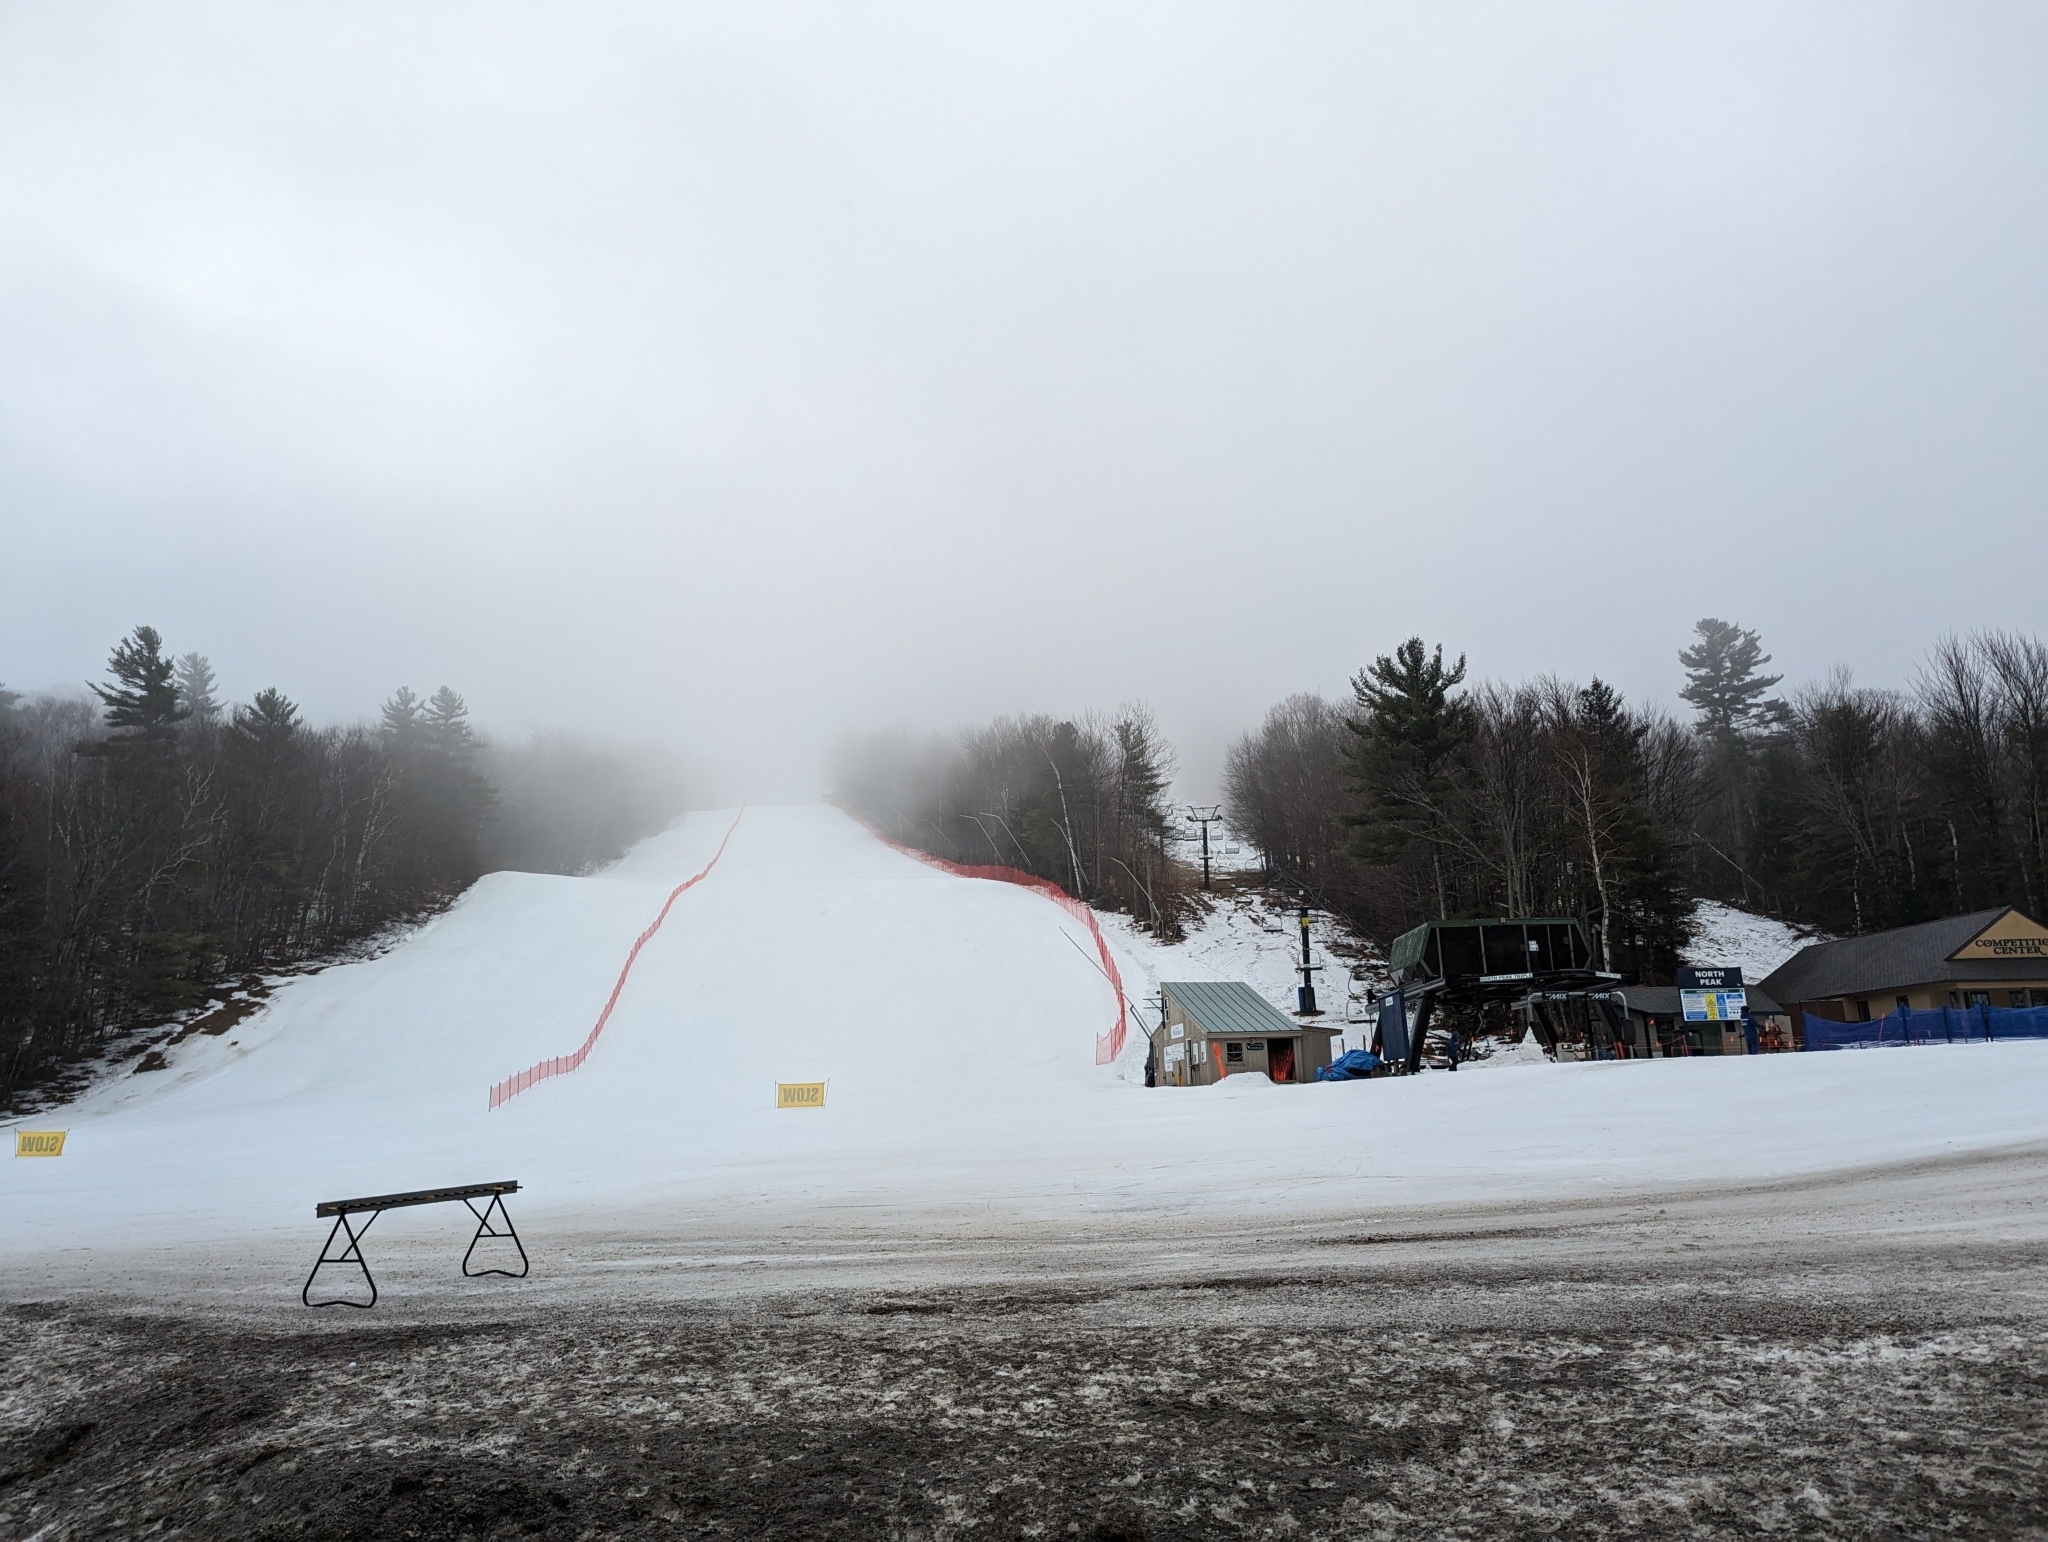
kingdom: Plantae
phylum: Tracheophyta
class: Pinopsida
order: Pinales
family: Pinaceae
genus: Pinus
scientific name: Pinus strobus
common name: Weymouth pine
